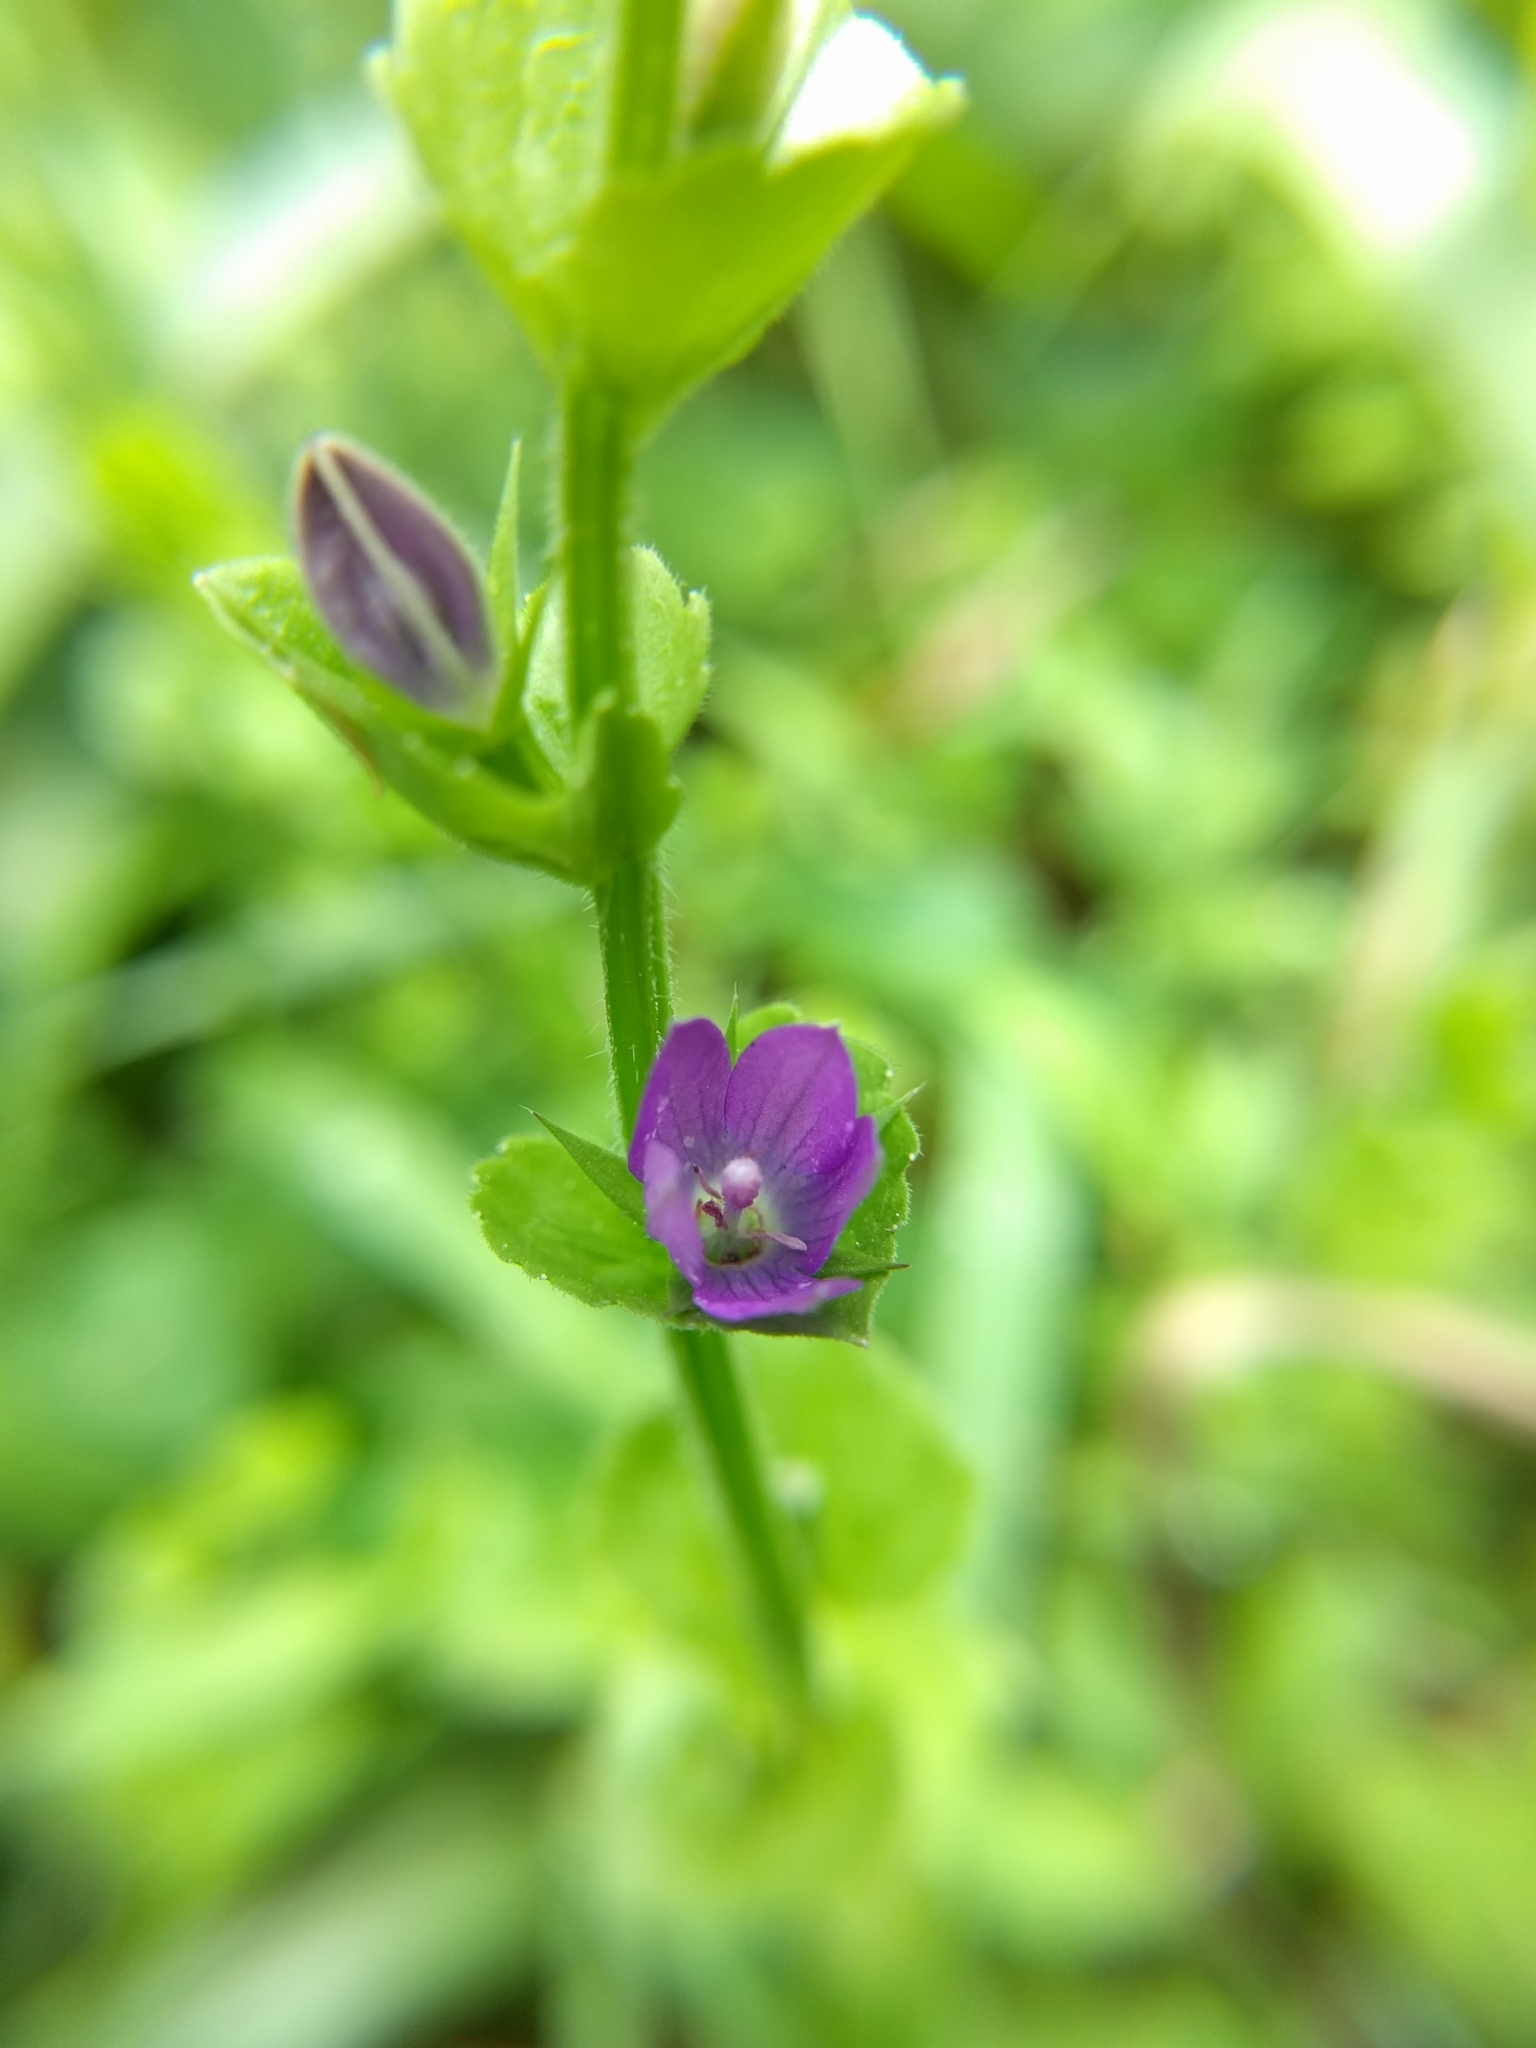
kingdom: Plantae
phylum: Tracheophyta
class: Magnoliopsida
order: Asterales
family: Campanulaceae
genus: Triodanis
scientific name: Triodanis perfoliata
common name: Clasping venus' looking-glass
